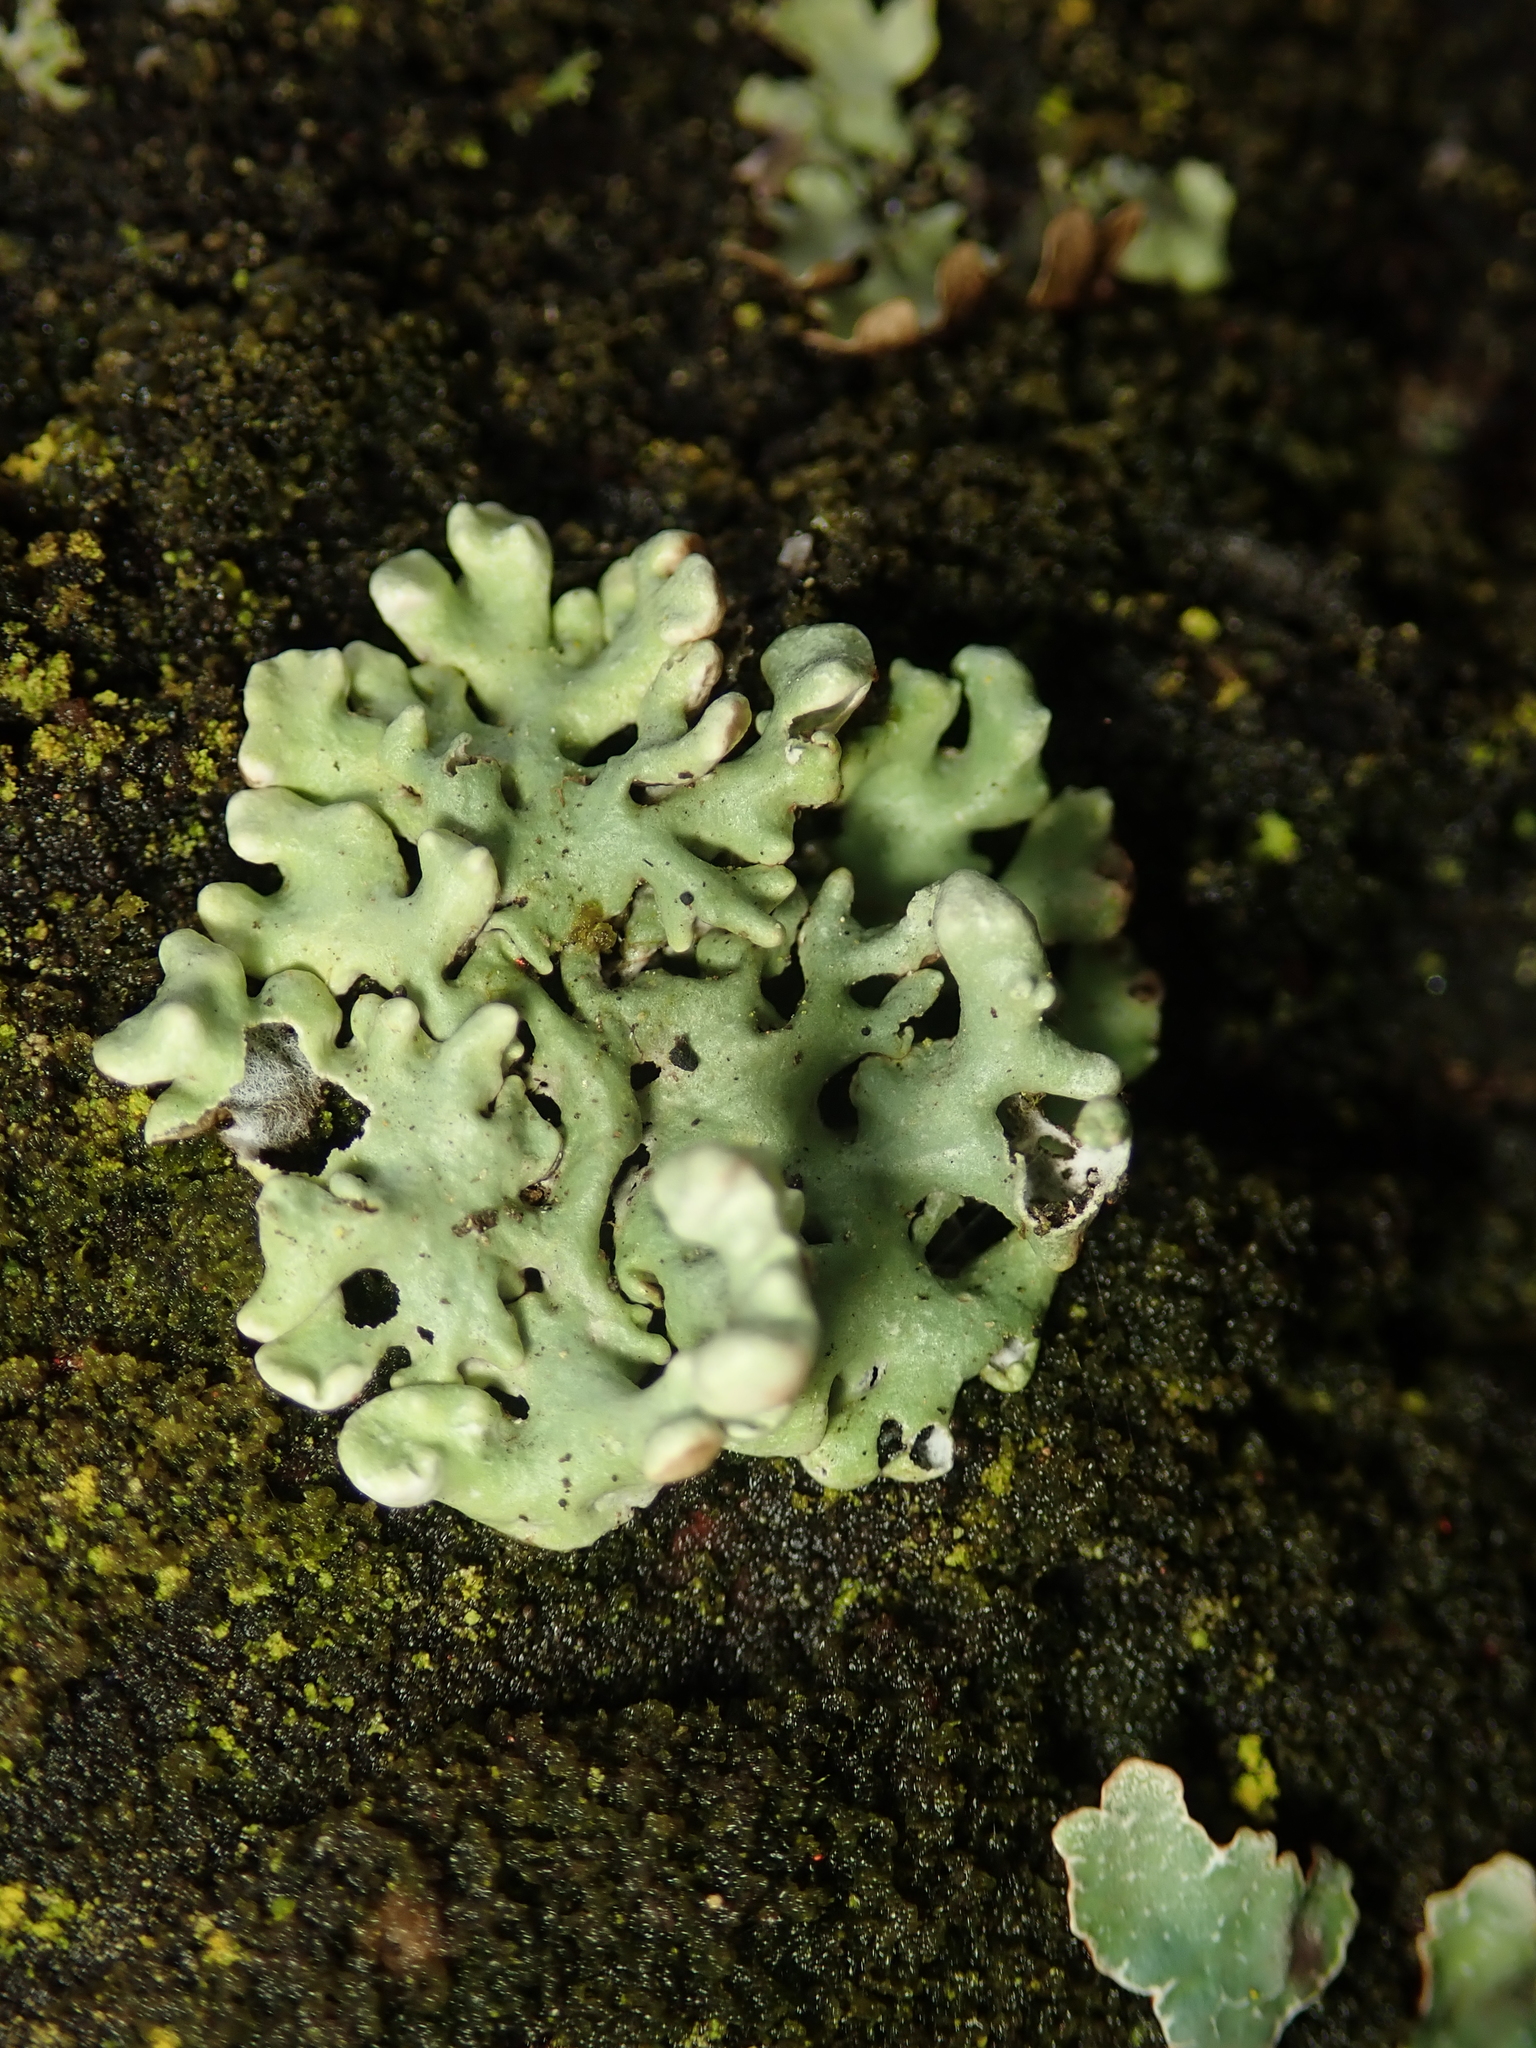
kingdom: Fungi
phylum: Ascomycota
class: Lecanoromycetes
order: Lecanorales
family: Parmeliaceae
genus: Hypogymnia
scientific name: Hypogymnia physodes
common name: Dark crottle
